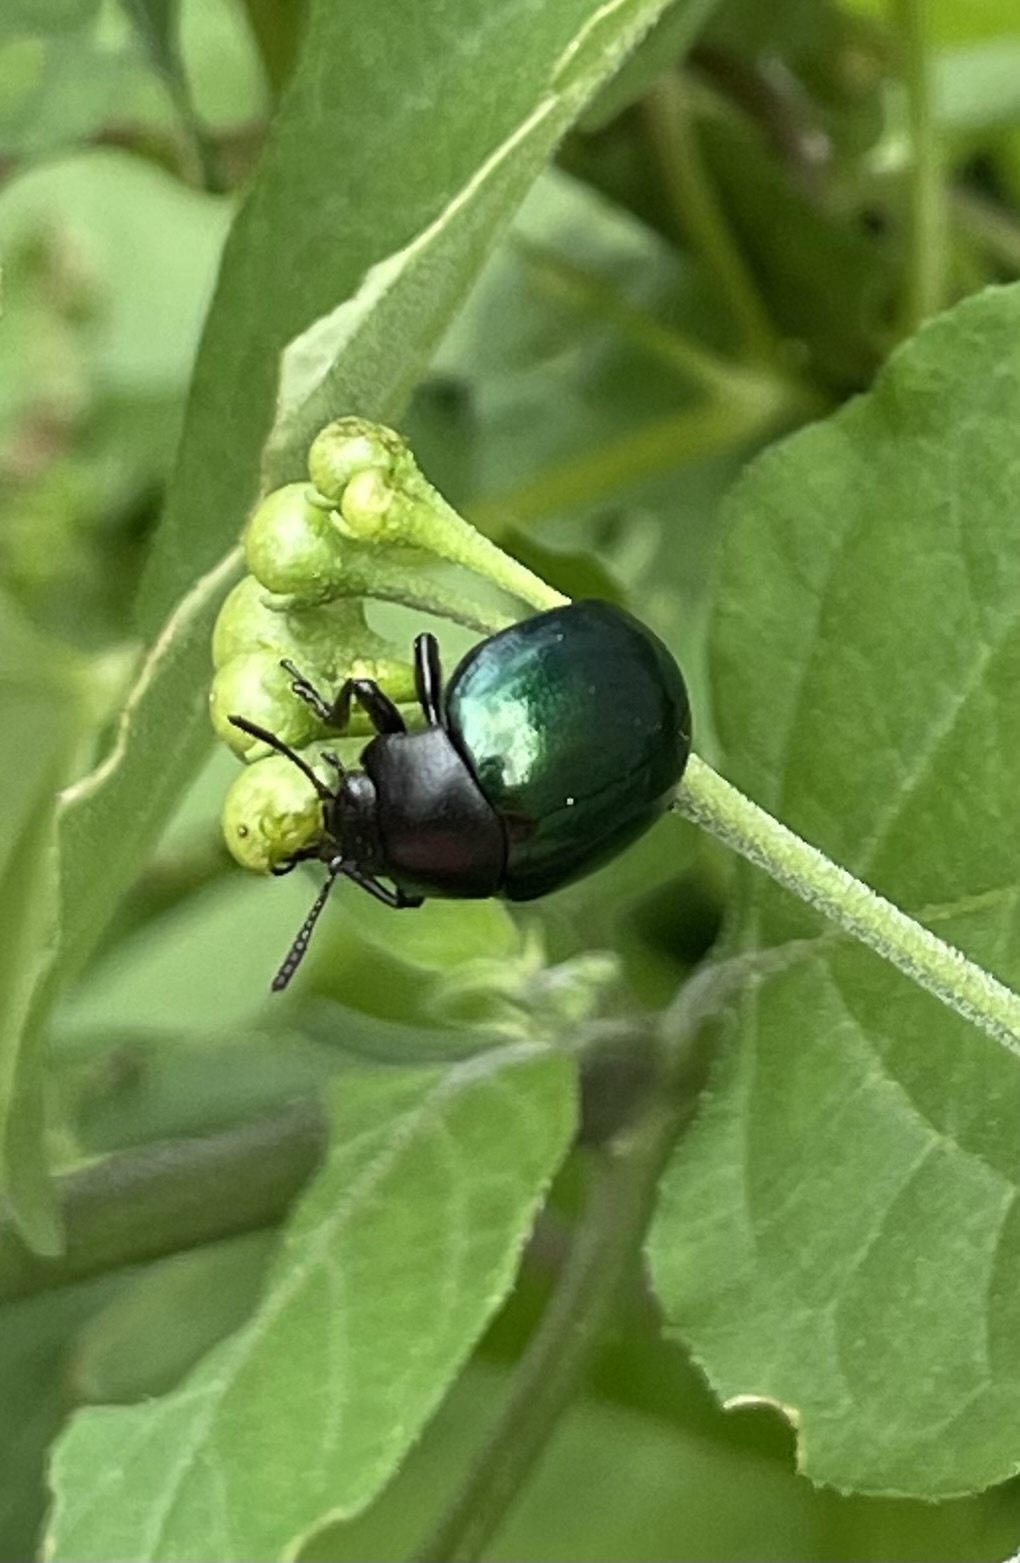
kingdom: Animalia
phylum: Arthropoda
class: Insecta
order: Coleoptera
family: Chrysomelidae
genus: Leptinotarsa
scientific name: Leptinotarsa haldemani
